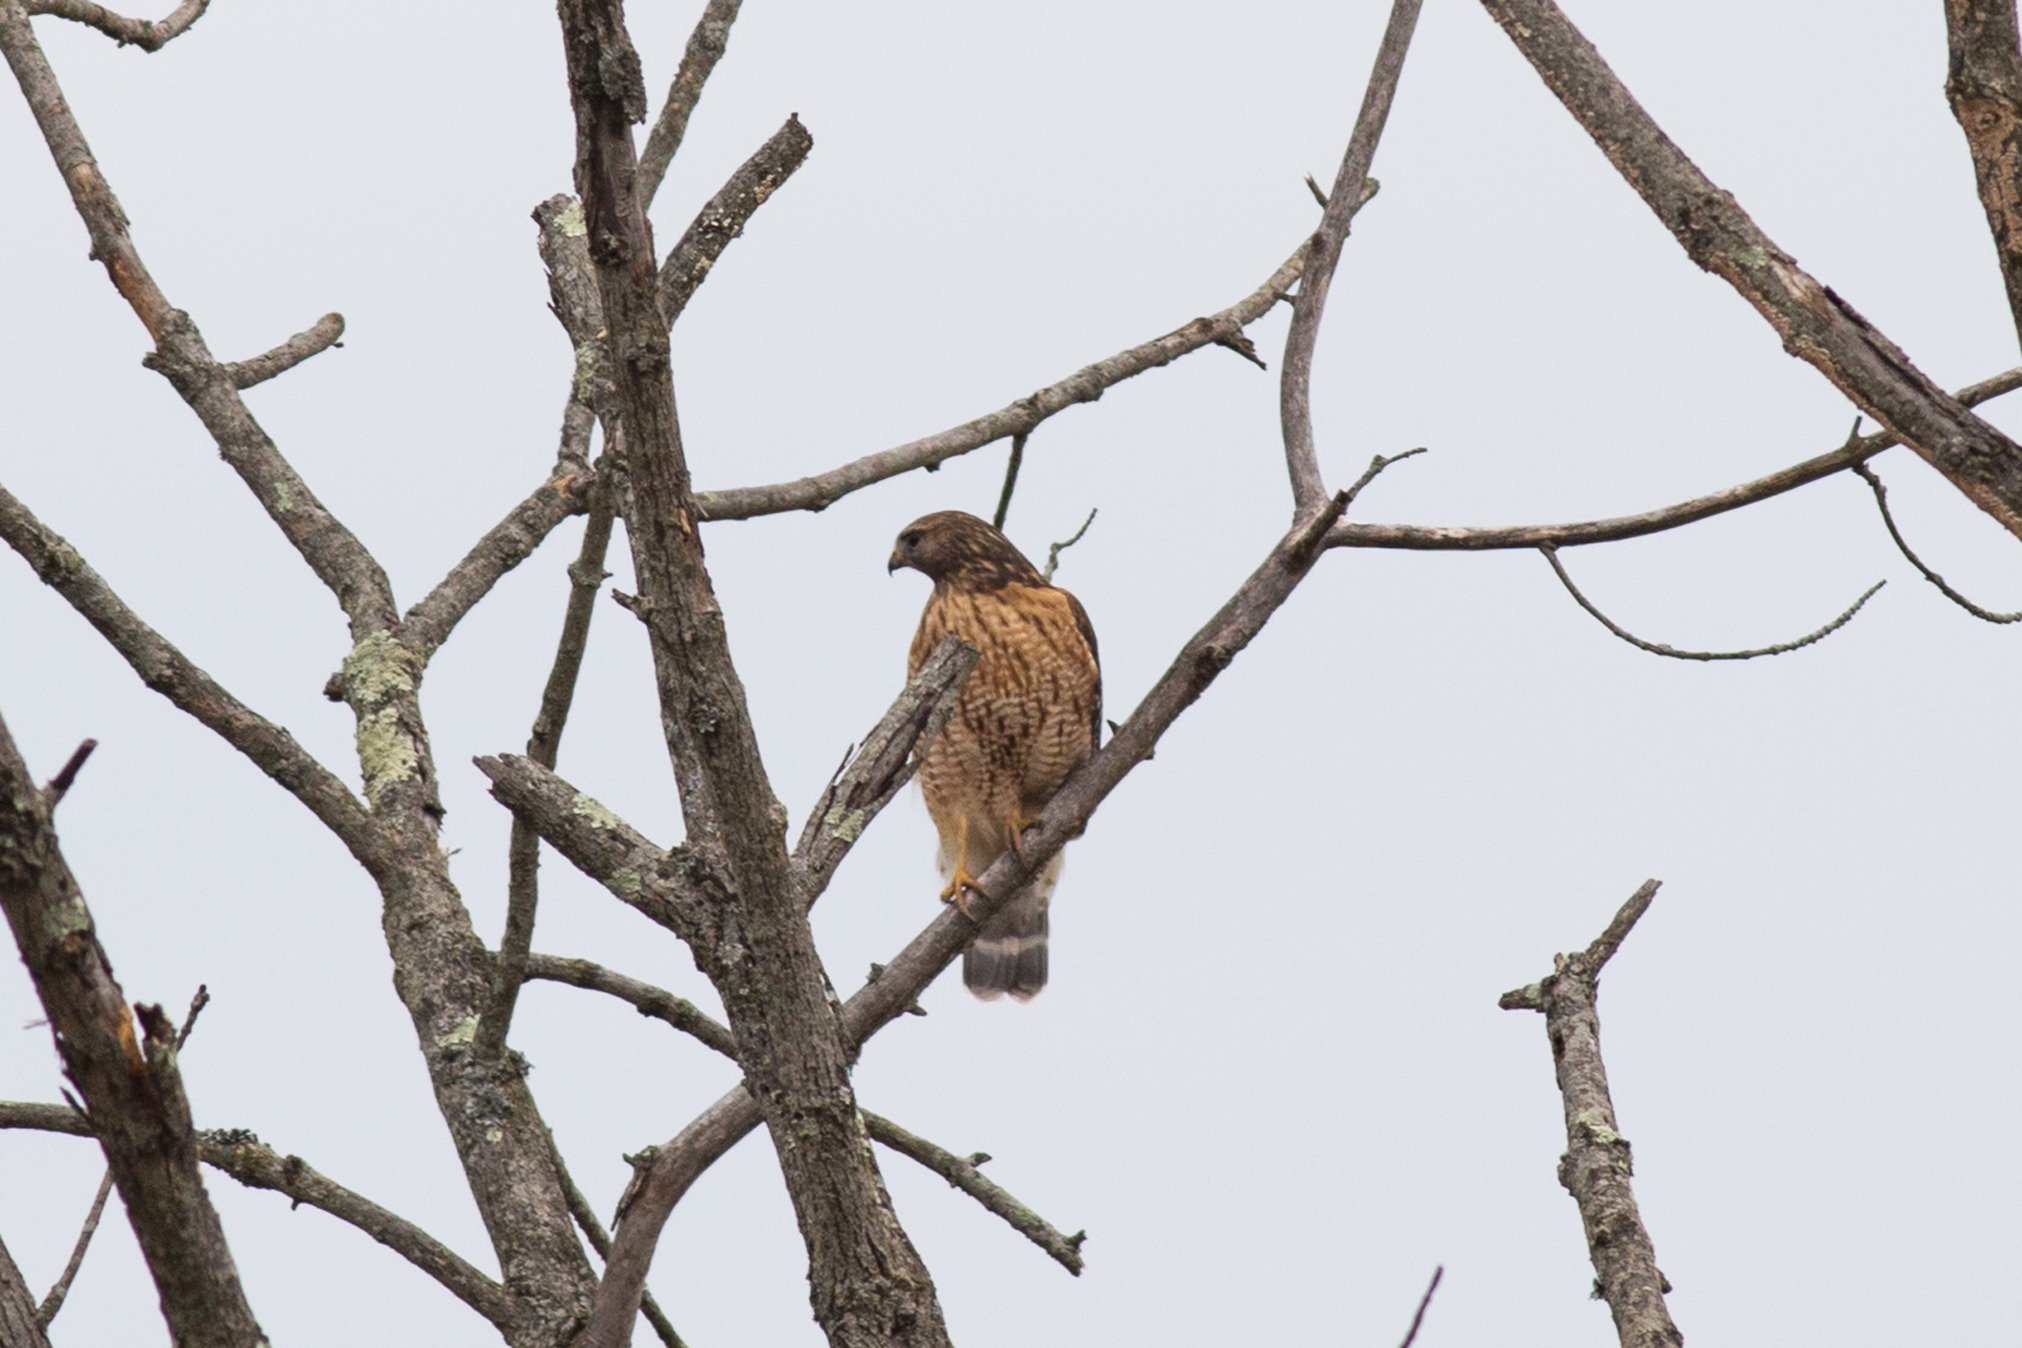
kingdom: Animalia
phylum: Chordata
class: Aves
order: Accipitriformes
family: Accipitridae
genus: Buteo
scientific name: Buteo lineatus
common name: Red-shouldered hawk
